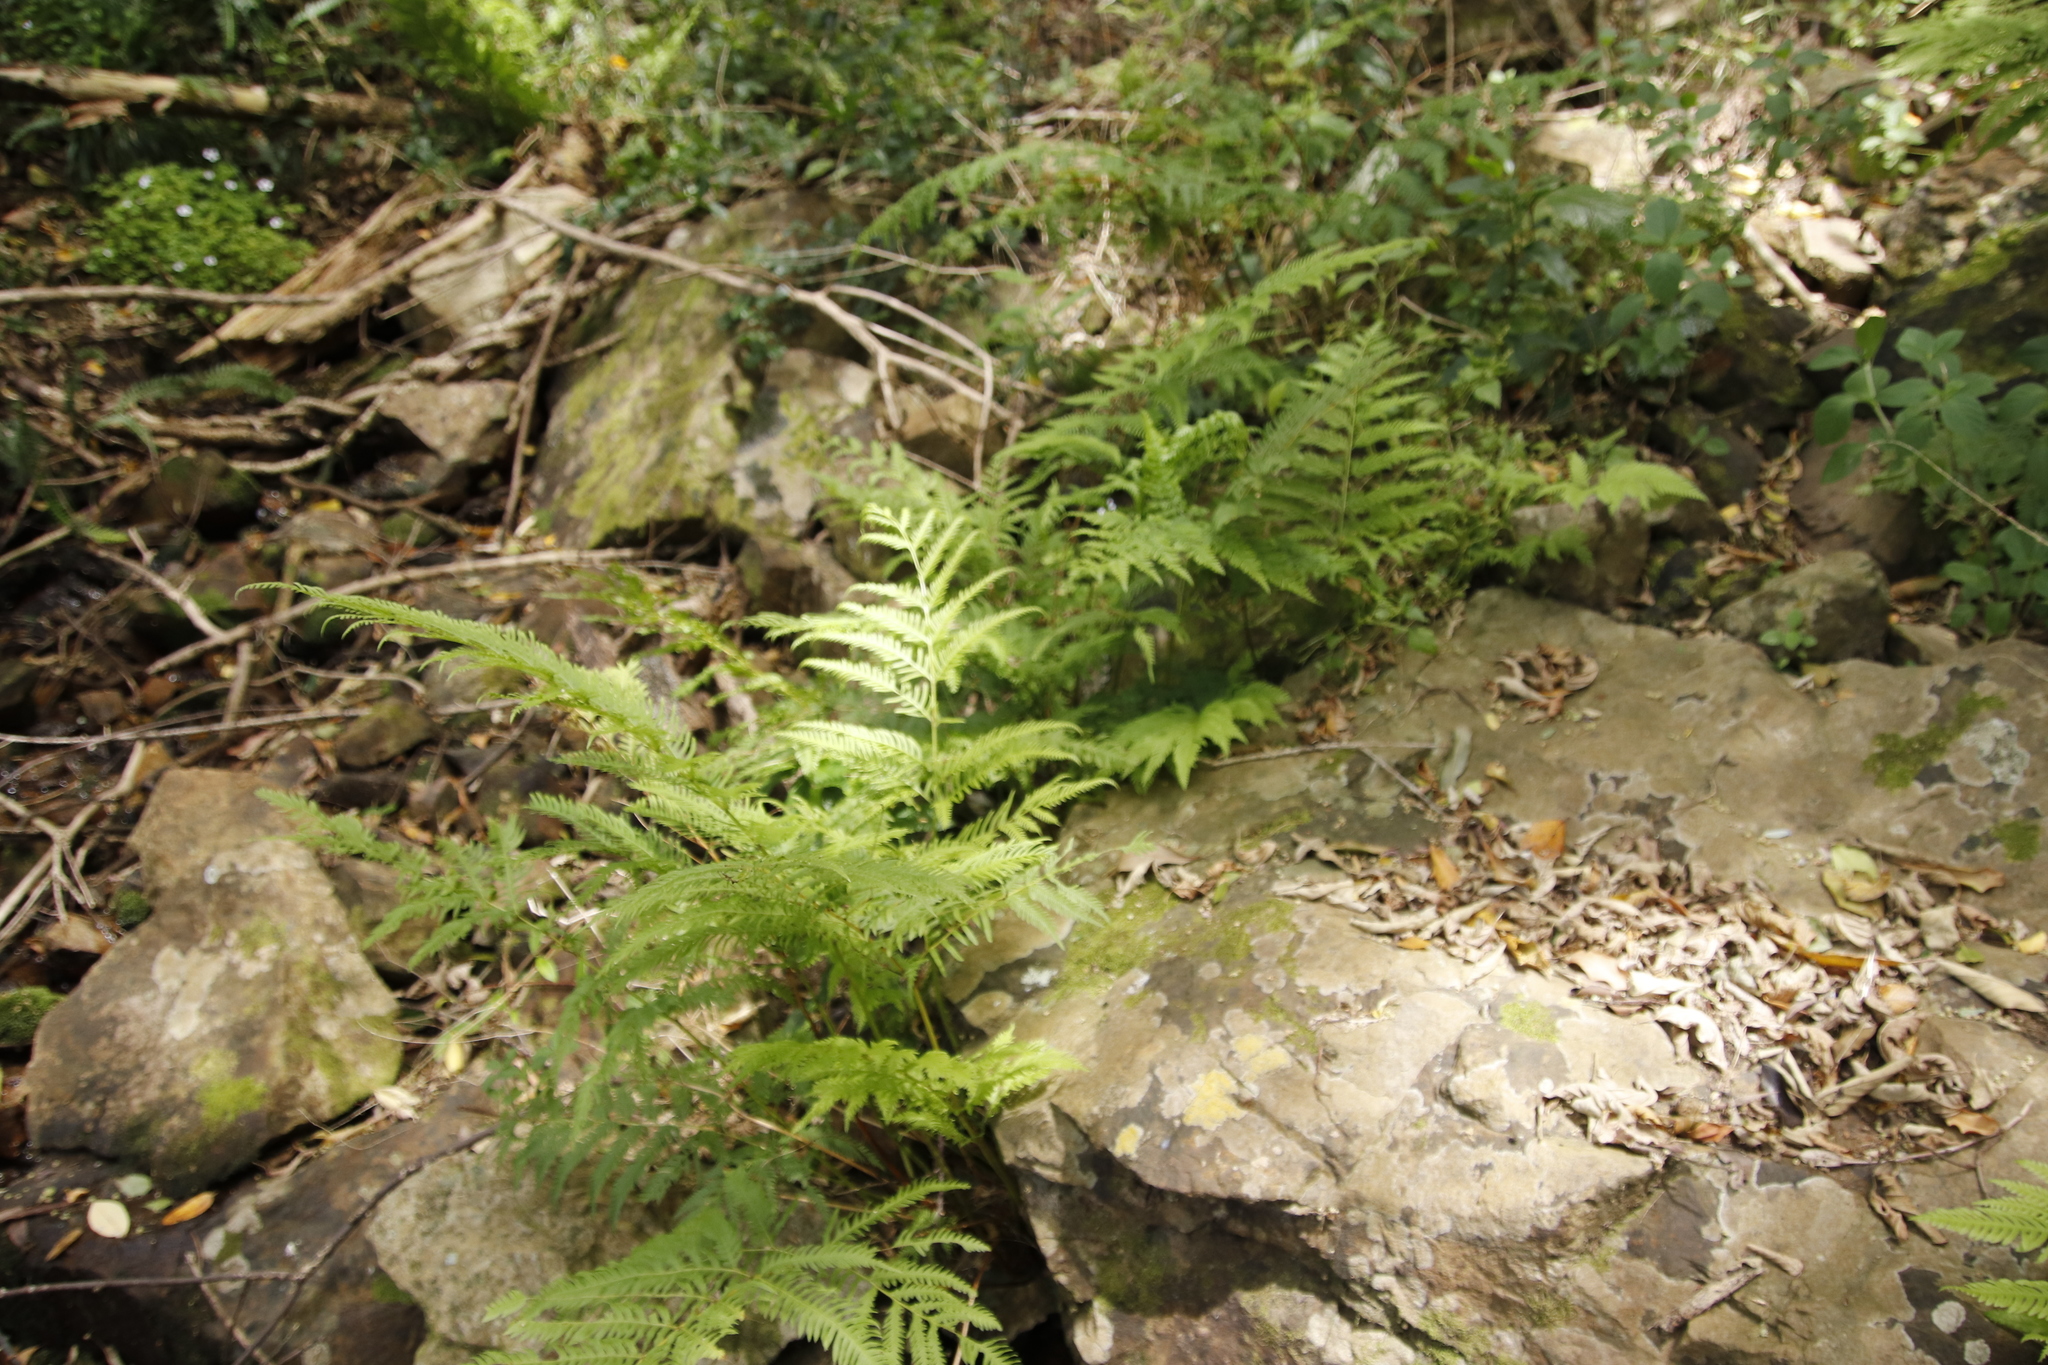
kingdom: Plantae
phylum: Tracheophyta
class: Polypodiopsida
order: Polypodiales
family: Pteridaceae
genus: Pteris
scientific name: Pteris dentata
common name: Toothed brake
